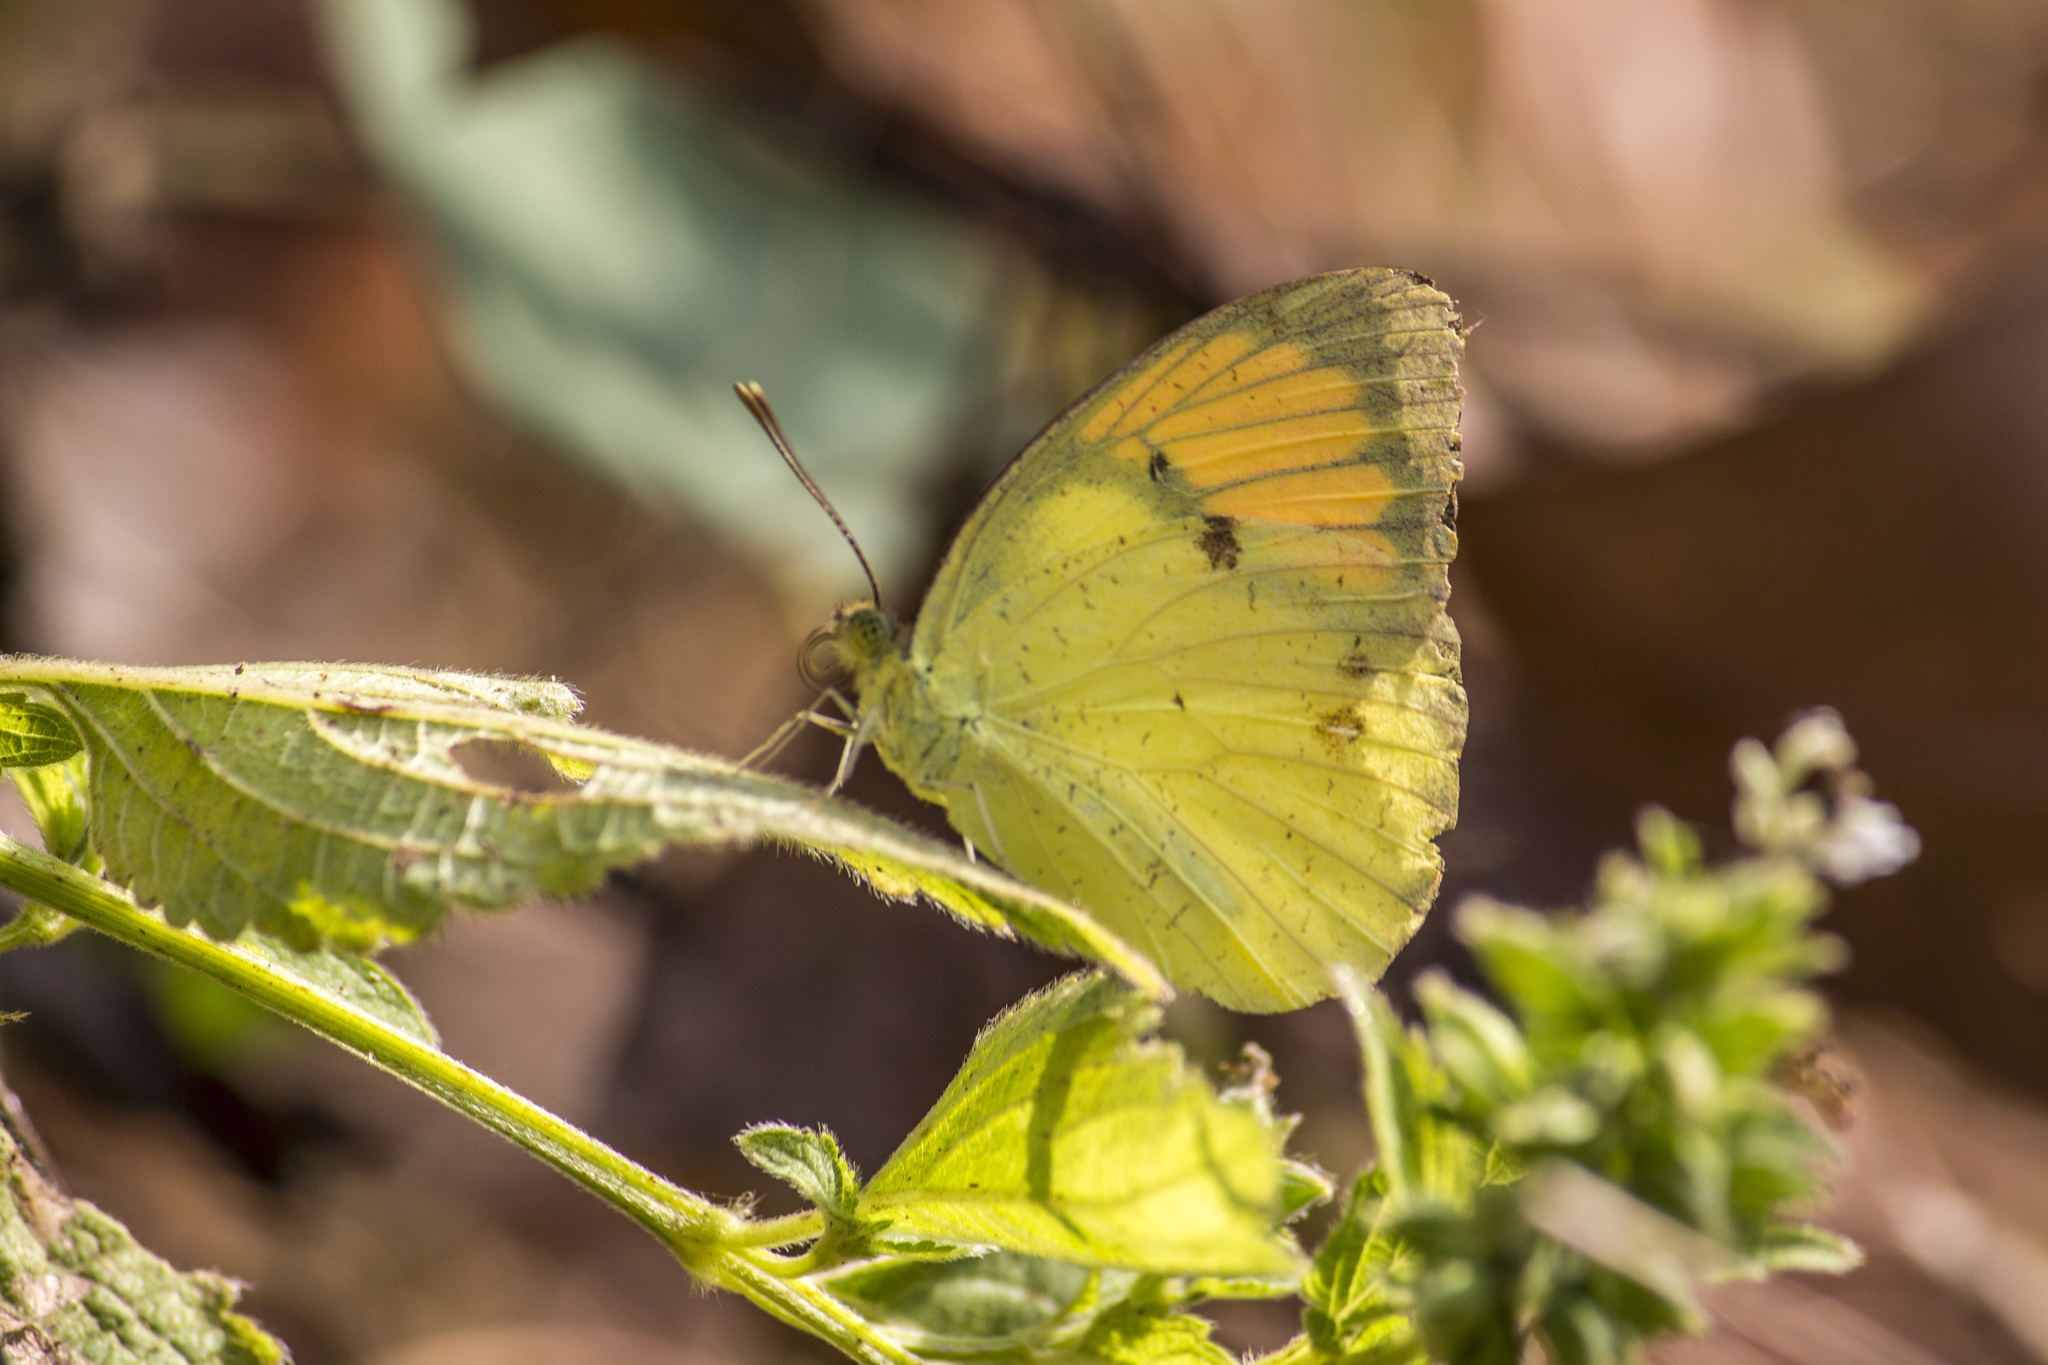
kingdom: Animalia
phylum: Arthropoda
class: Insecta
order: Lepidoptera
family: Pieridae
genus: Ixias
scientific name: Ixias pyrene
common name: Yellow orange tip
